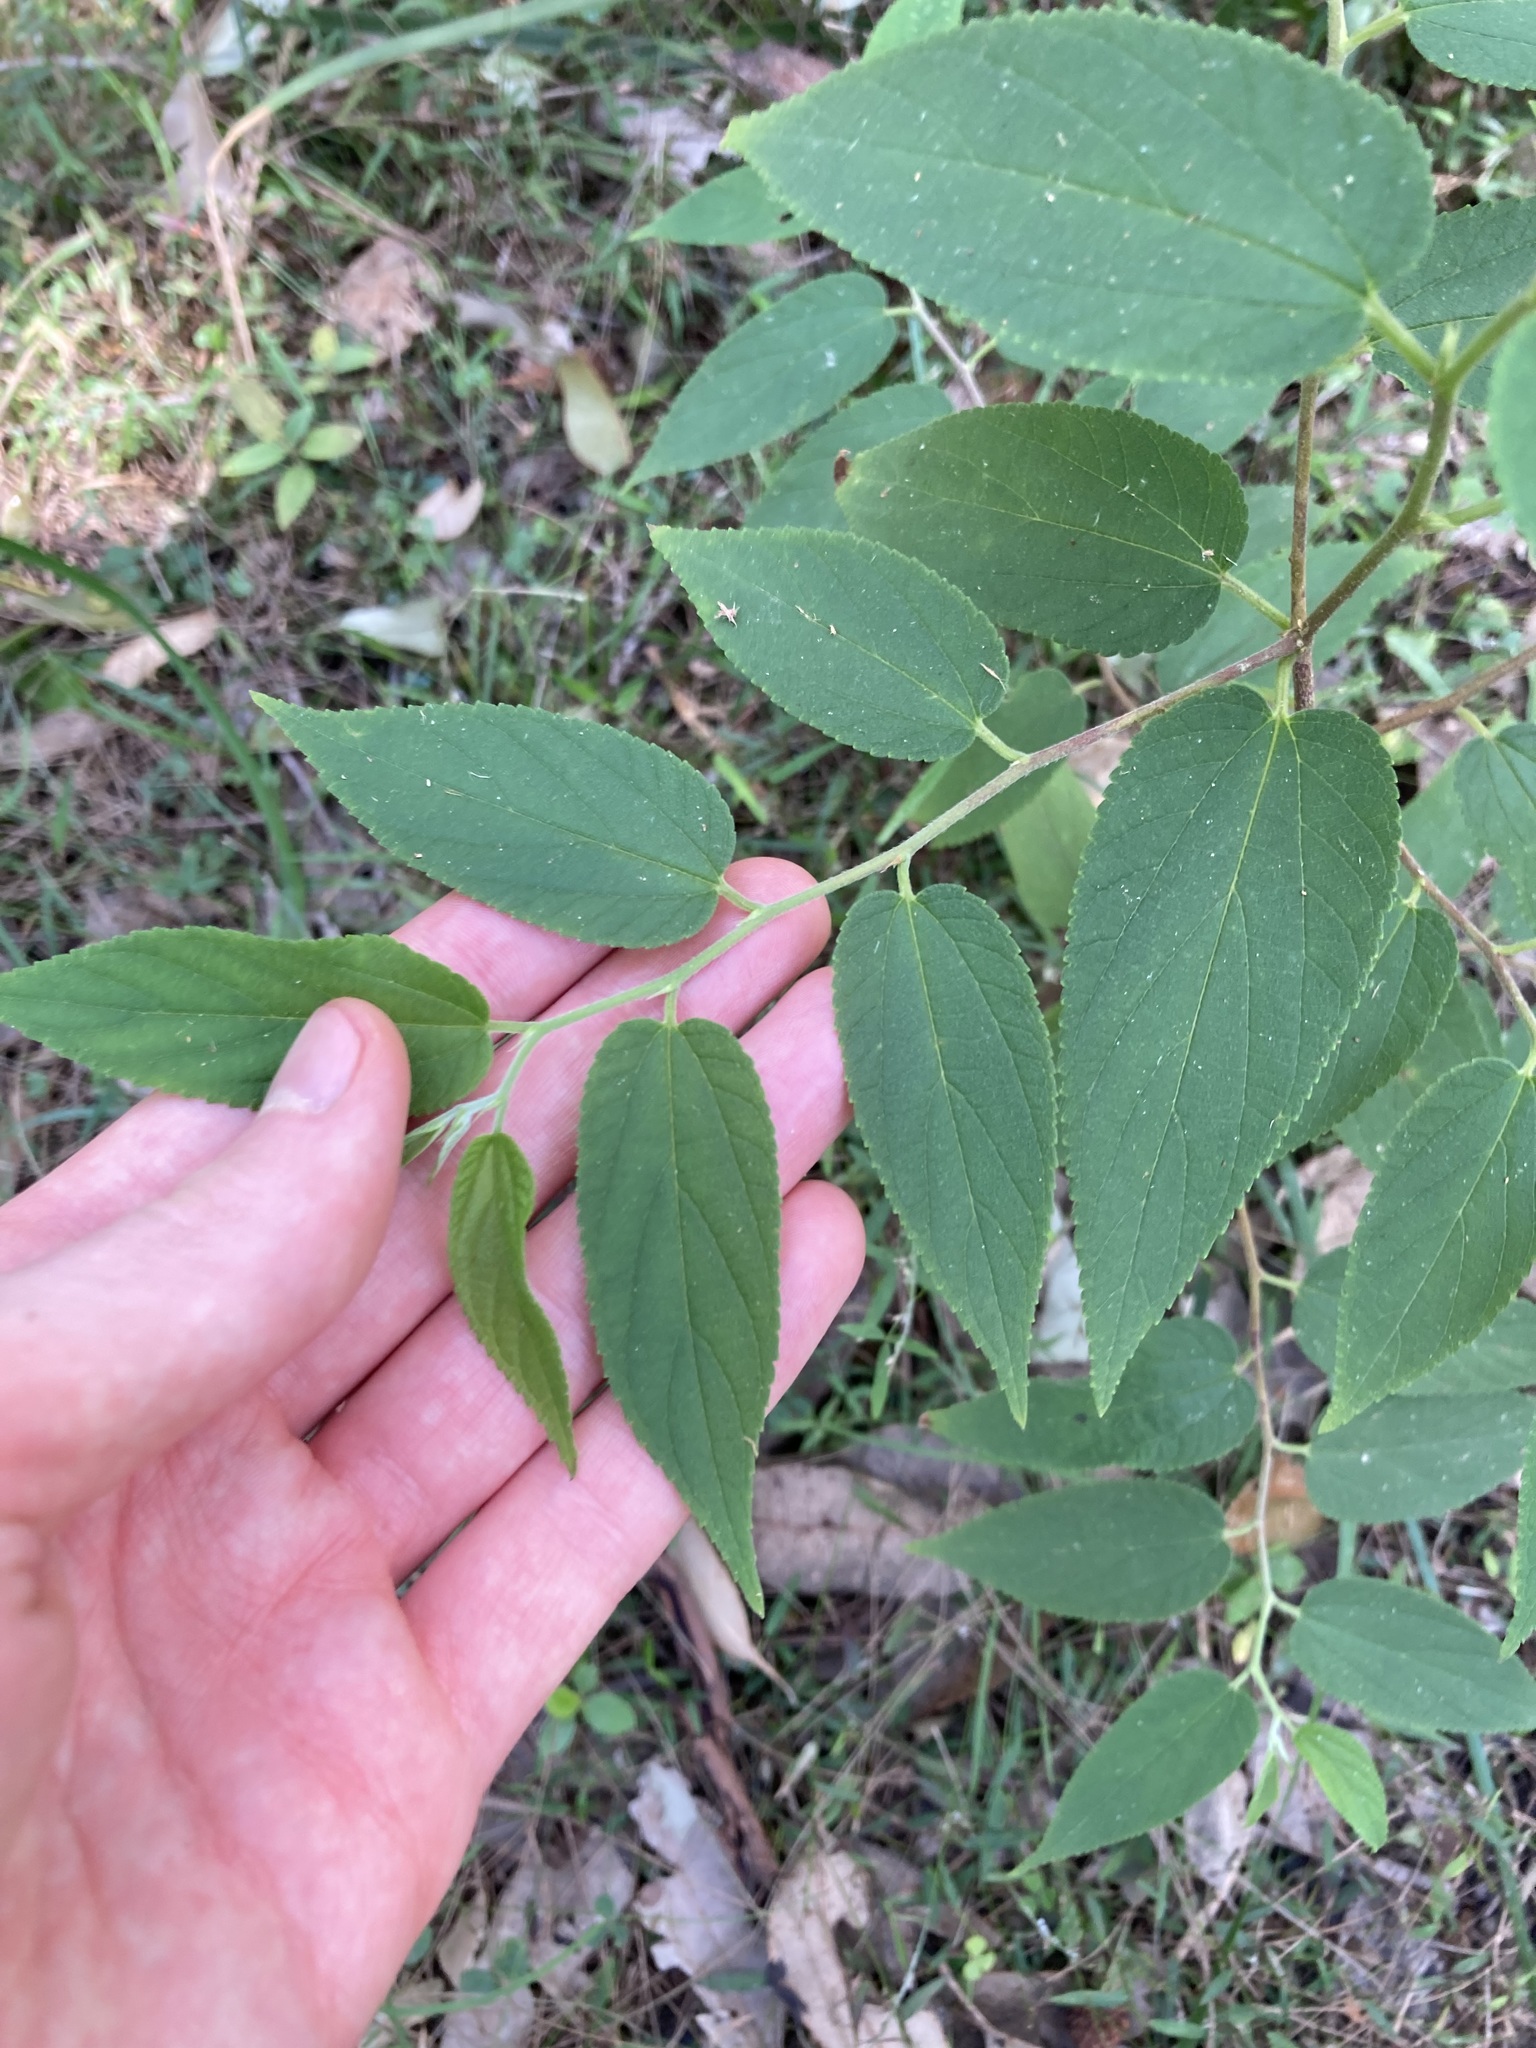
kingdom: Plantae
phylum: Tracheophyta
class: Magnoliopsida
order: Rosales
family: Cannabaceae
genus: Trema
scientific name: Trema tomentosum
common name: Peach-leaf-poisonbush
